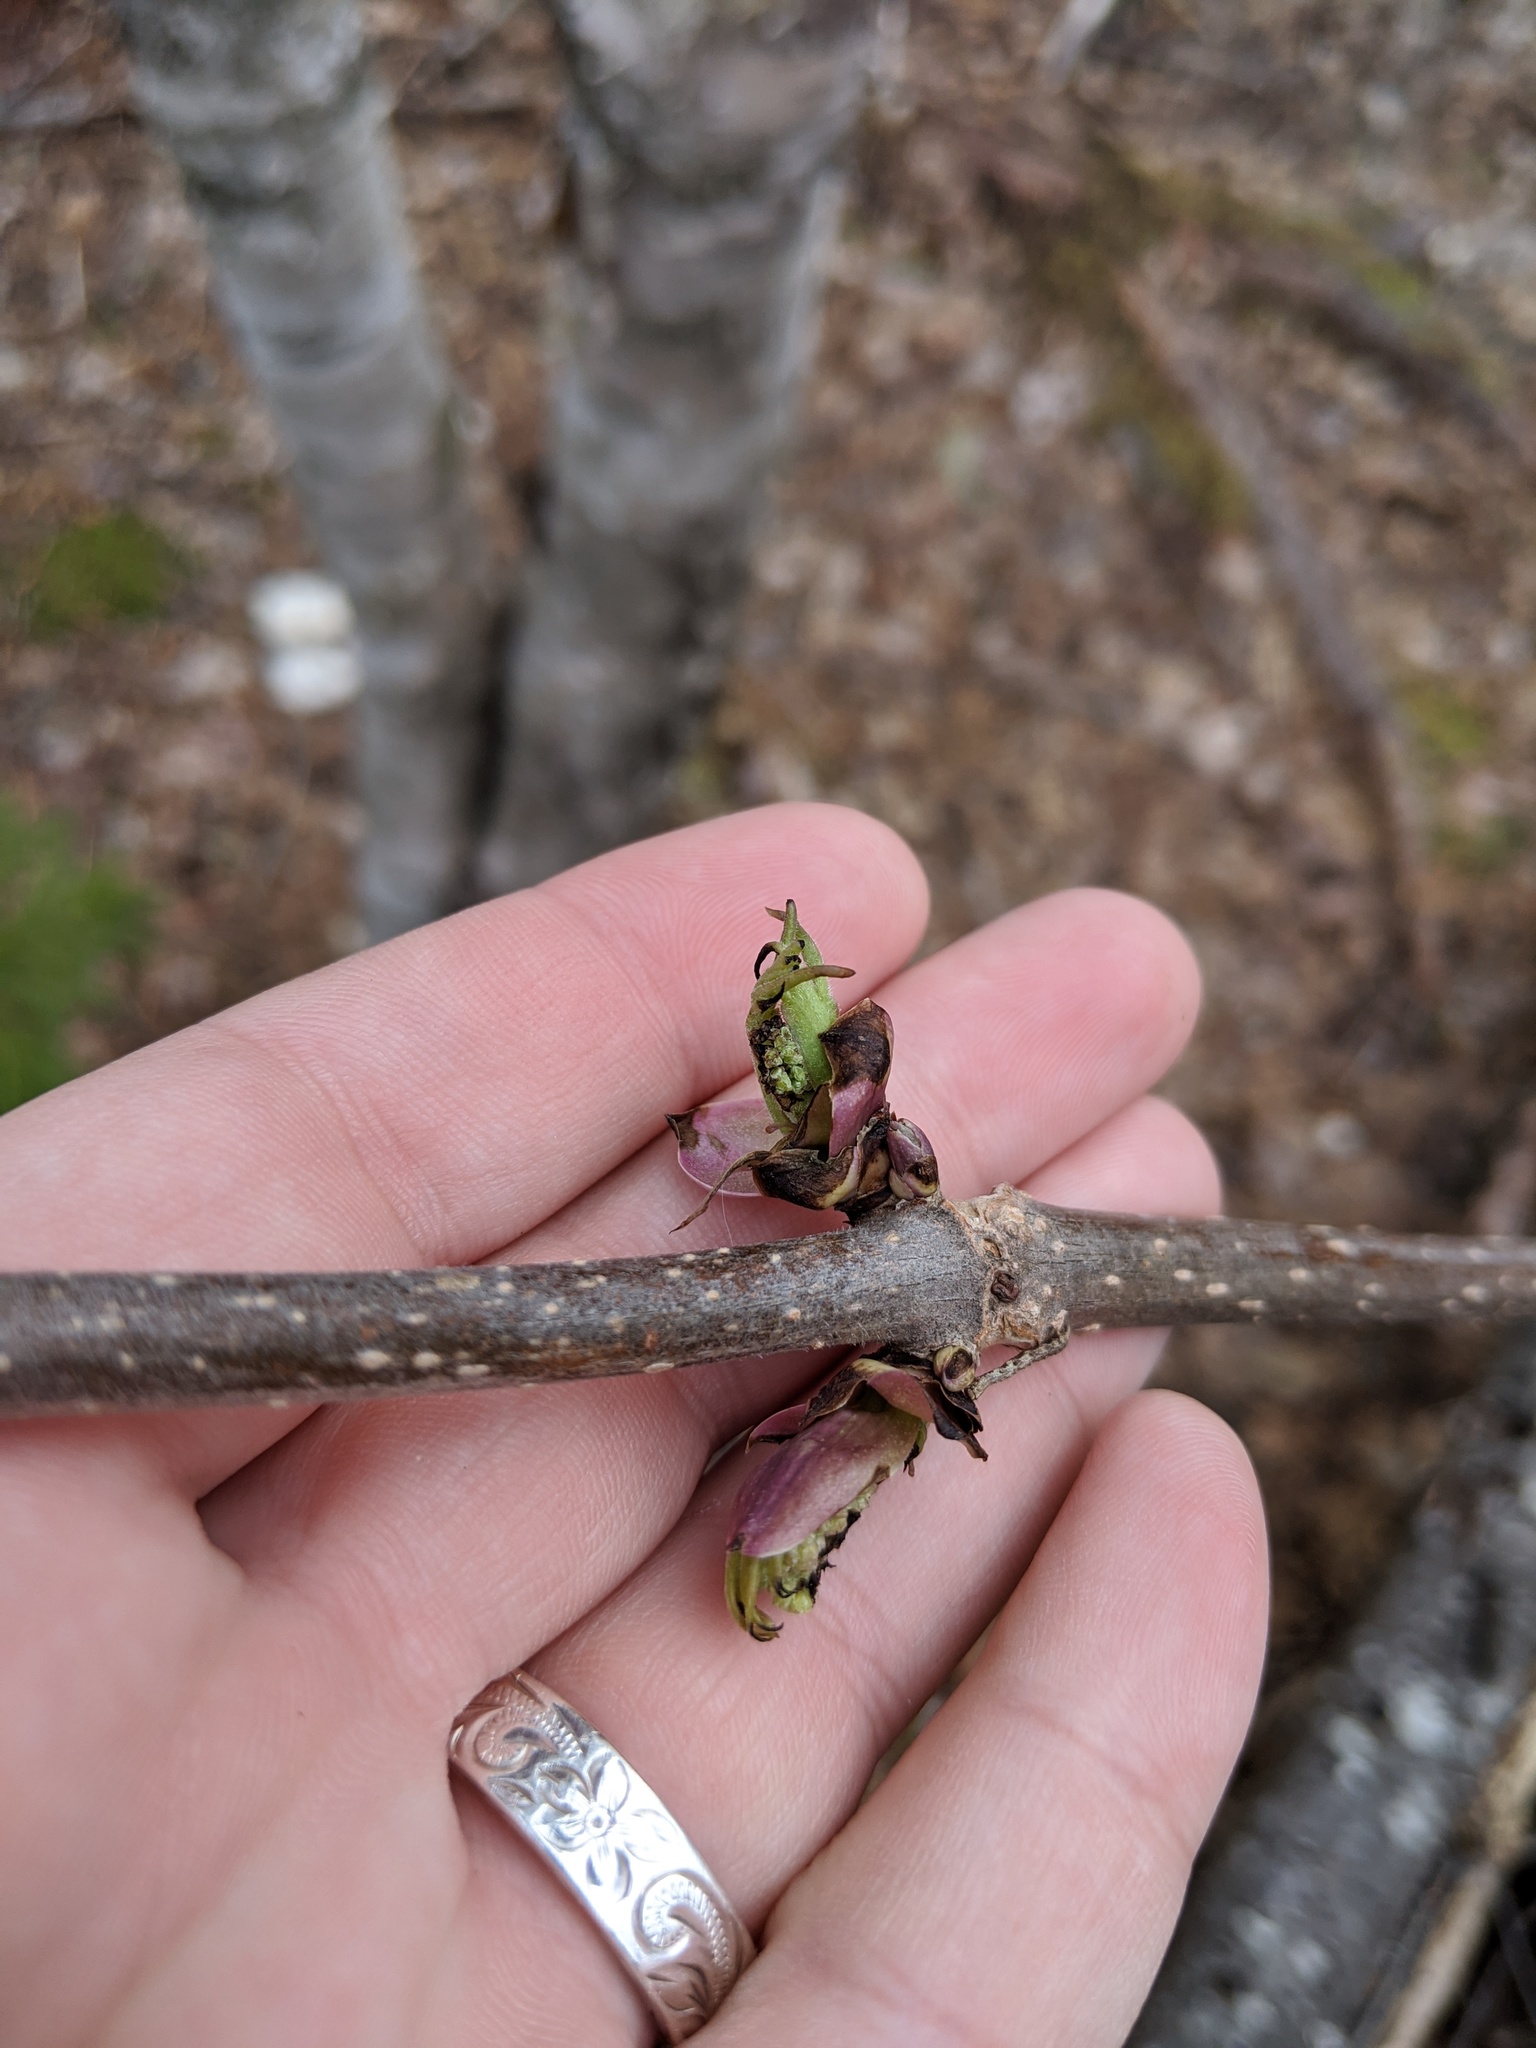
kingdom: Plantae
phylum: Tracheophyta
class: Magnoliopsida
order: Dipsacales
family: Viburnaceae
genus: Sambucus
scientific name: Sambucus racemosa
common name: Red-berried elder
